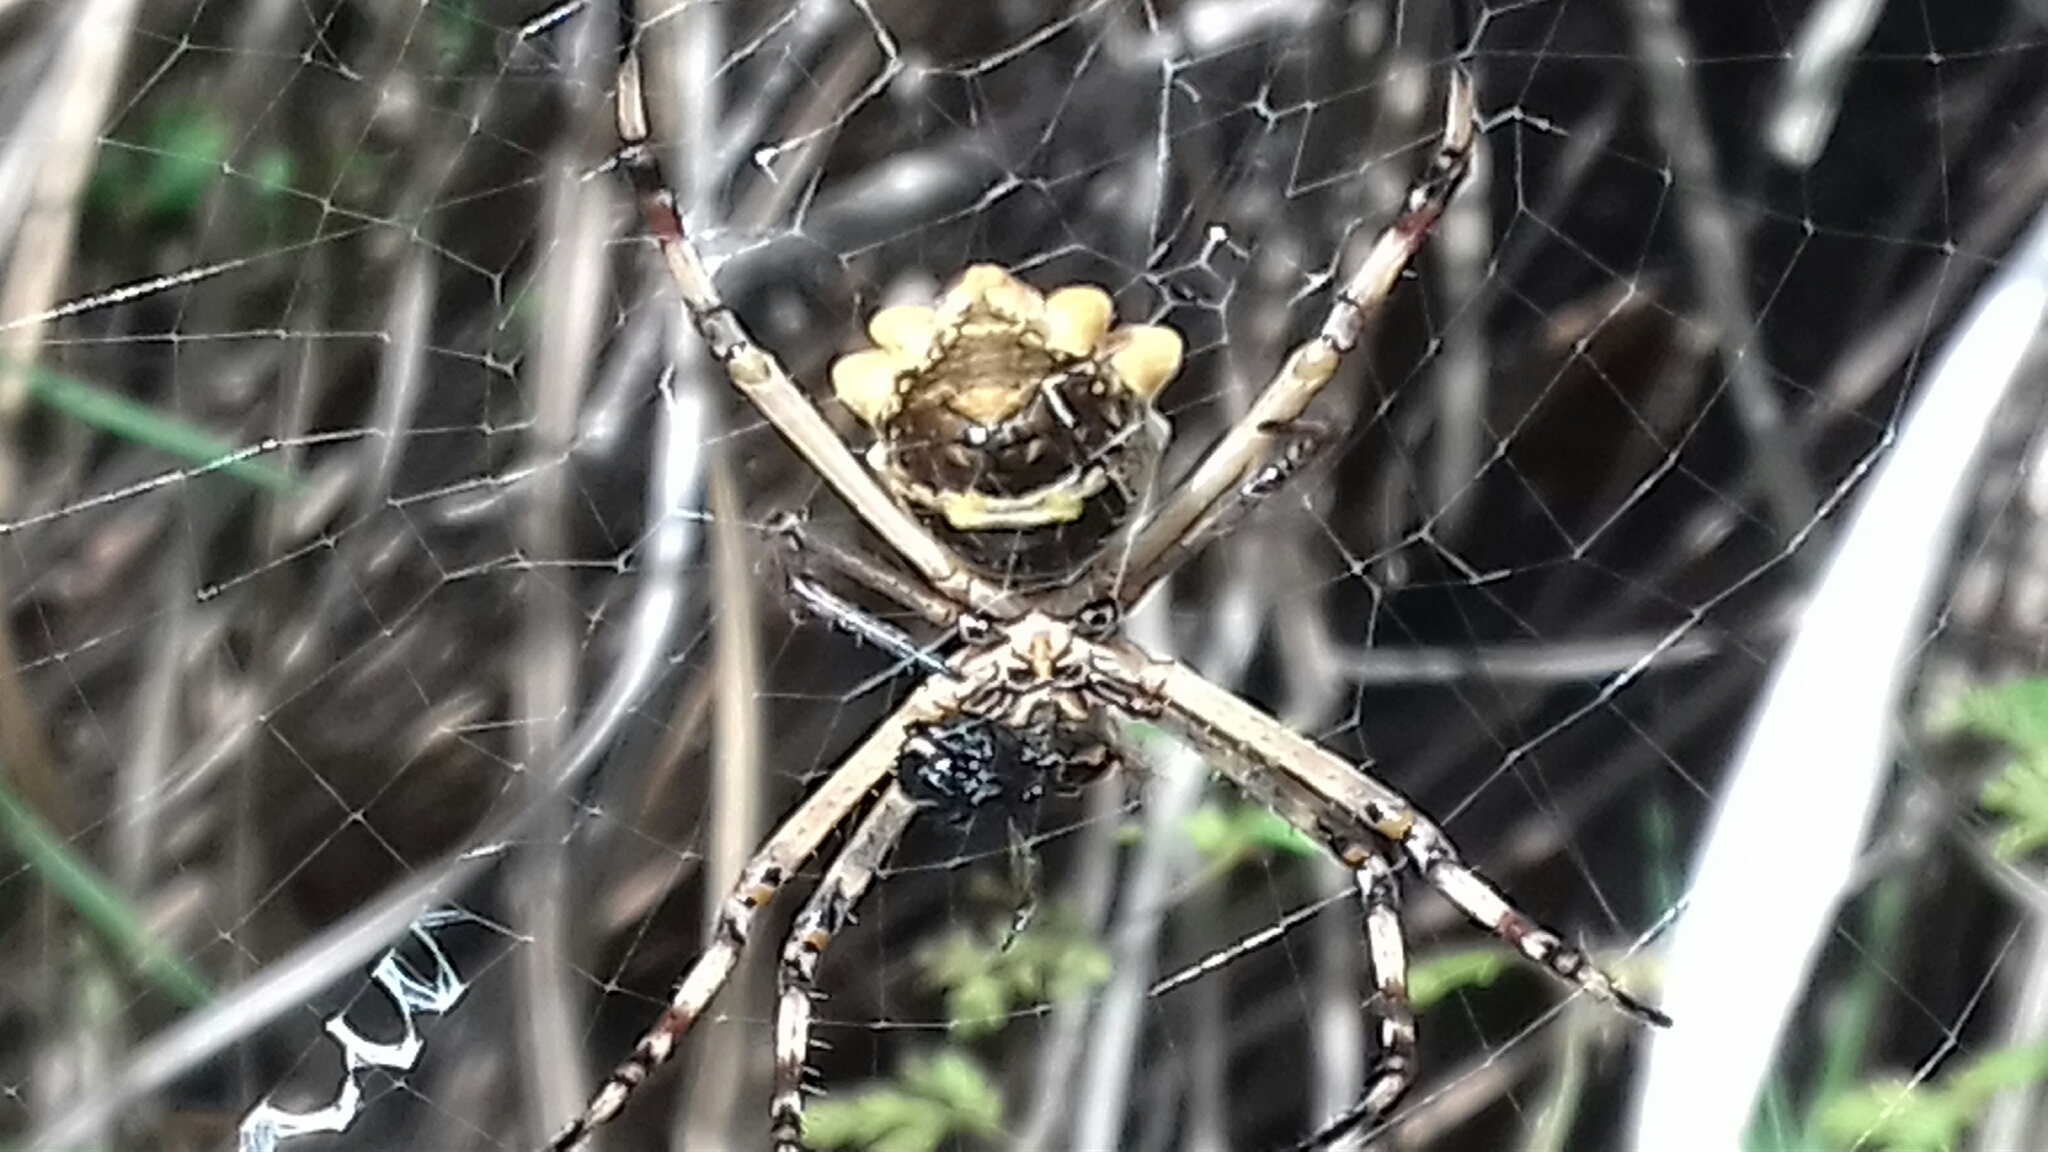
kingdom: Animalia
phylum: Arthropoda
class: Arachnida
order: Araneae
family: Araneidae
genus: Argiope
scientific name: Argiope argentata
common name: Orb weavers
